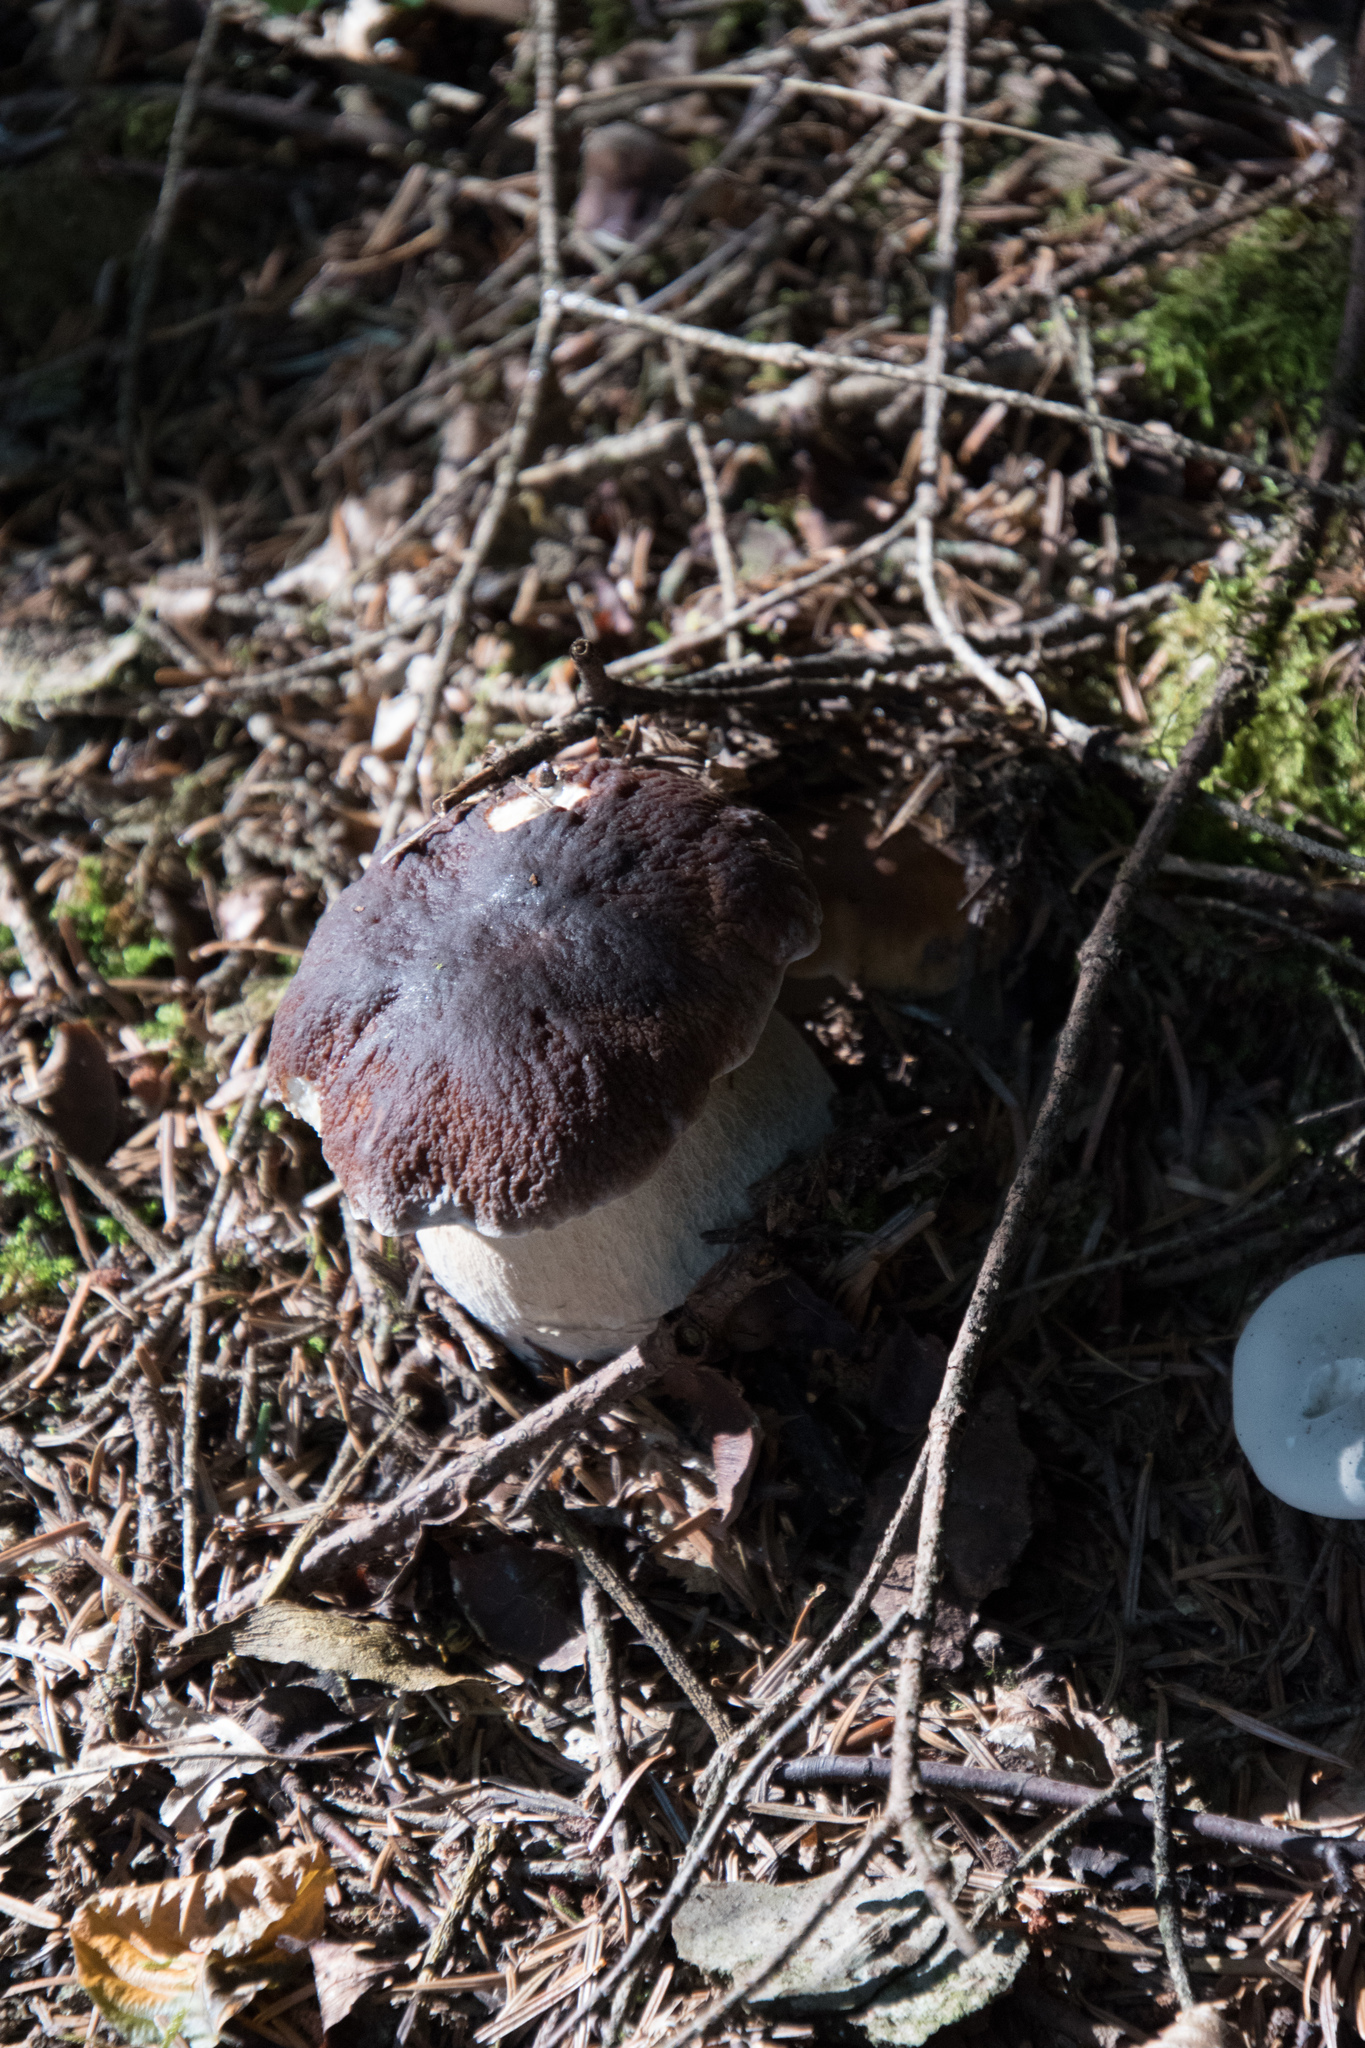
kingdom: Fungi
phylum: Basidiomycota
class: Agaricomycetes
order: Boletales
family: Boletaceae
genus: Boletus
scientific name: Boletus edulis
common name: Cep
